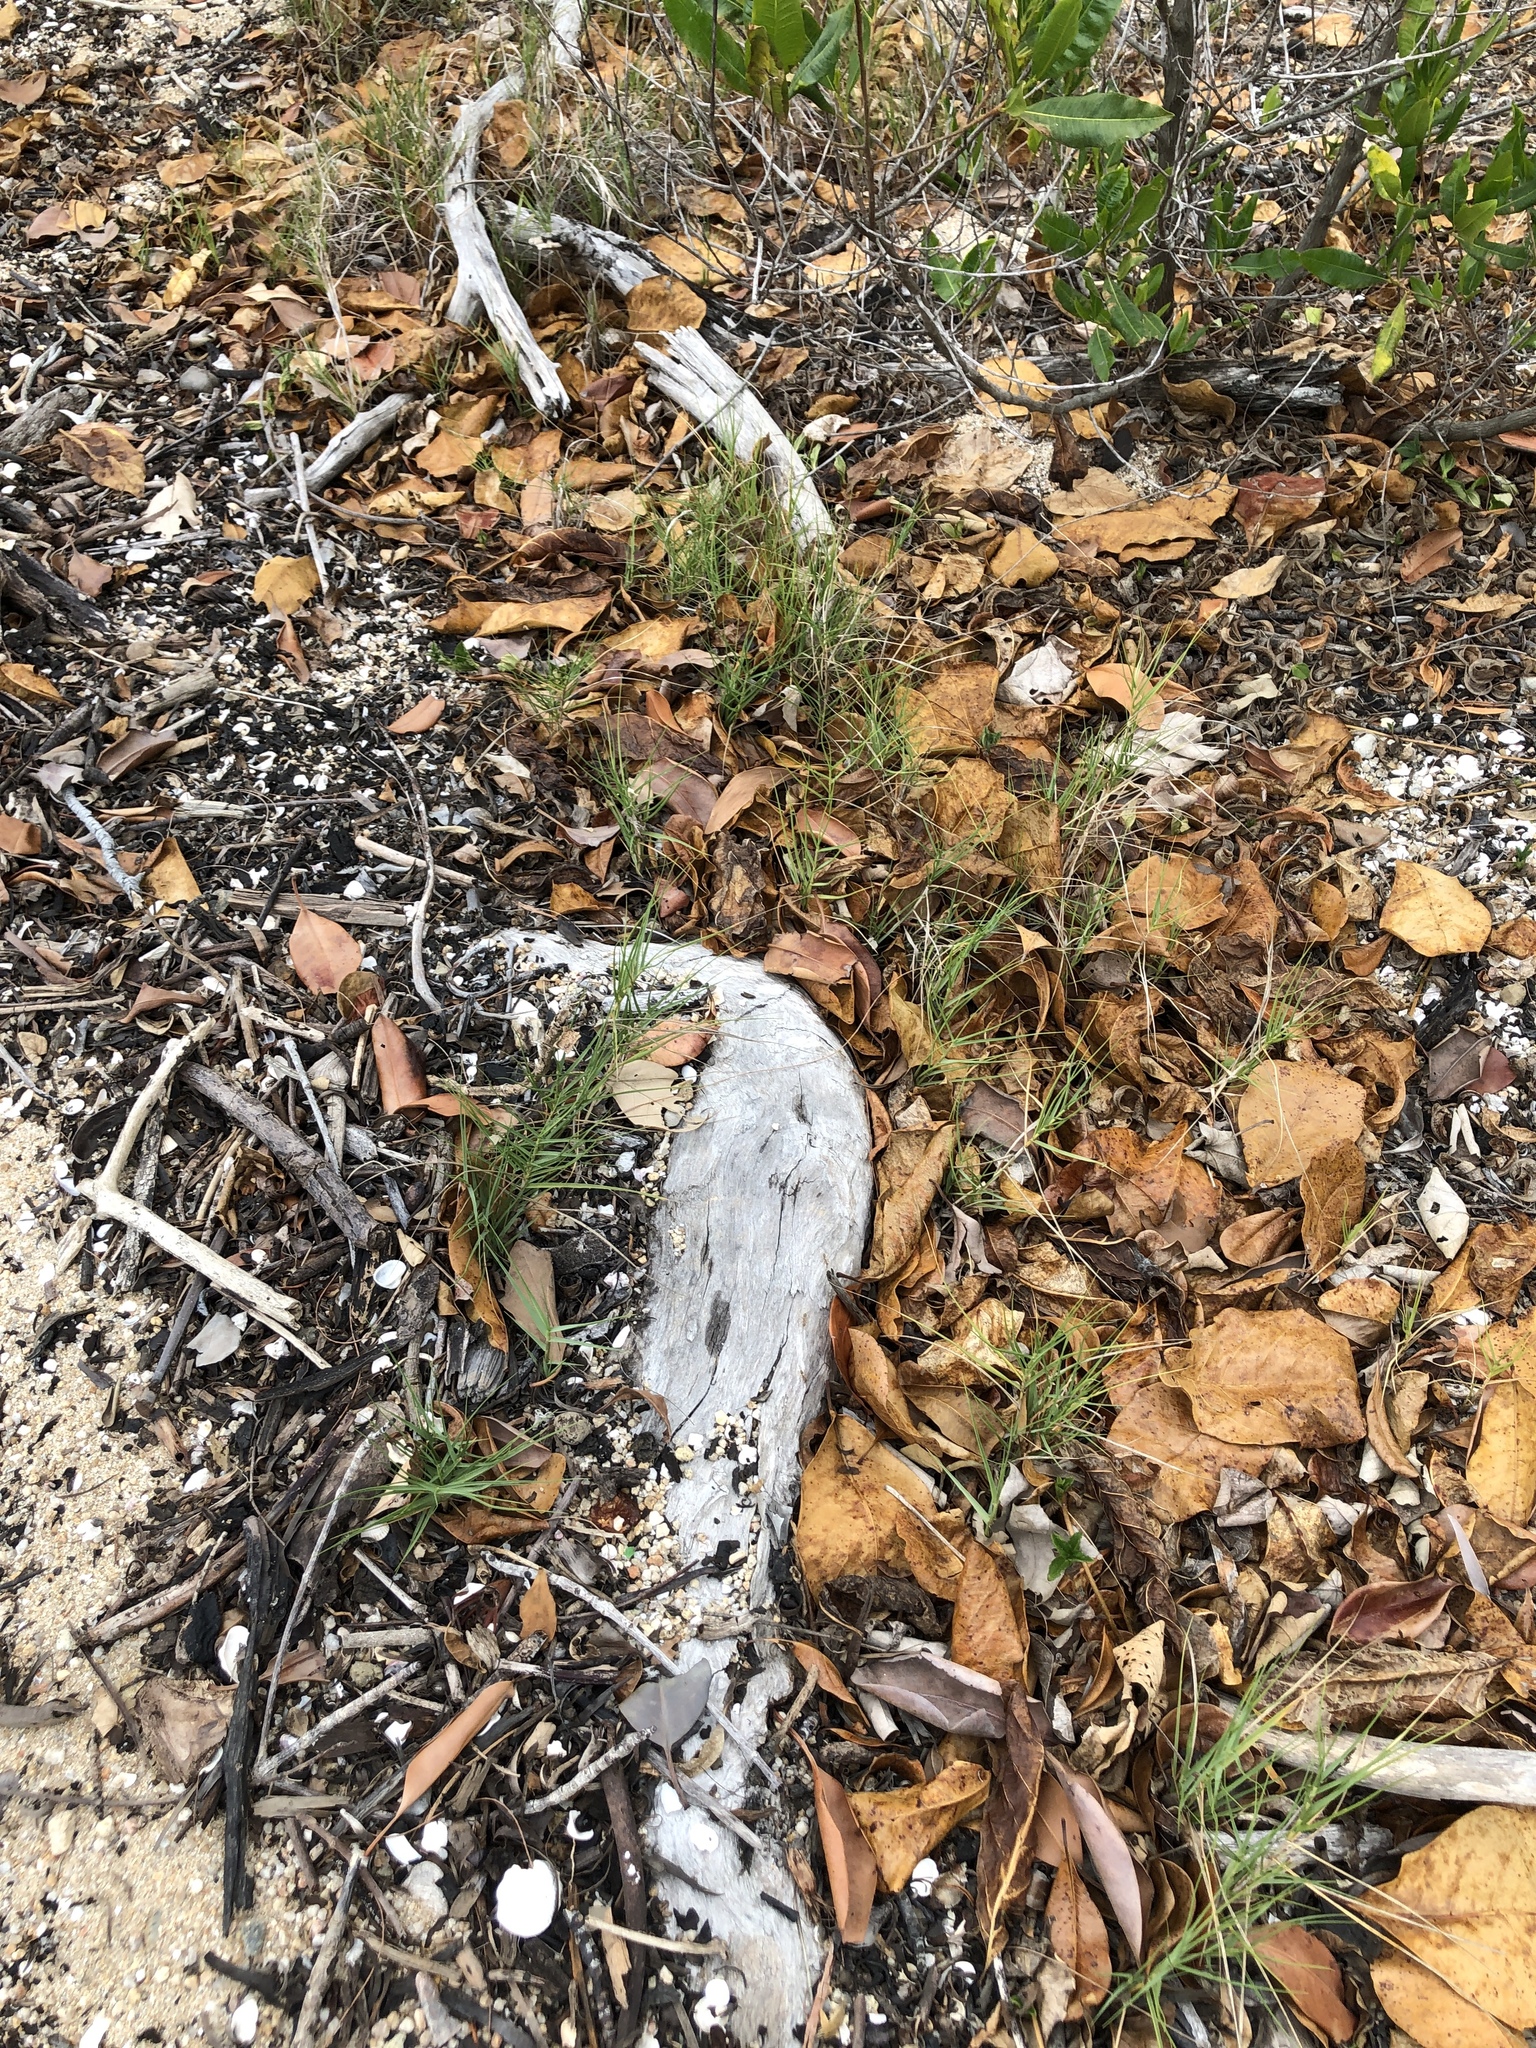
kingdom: Plantae
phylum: Tracheophyta
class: Liliopsida
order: Poales
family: Poaceae
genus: Sporobolus
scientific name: Sporobolus virginicus
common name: Beach dropseed
